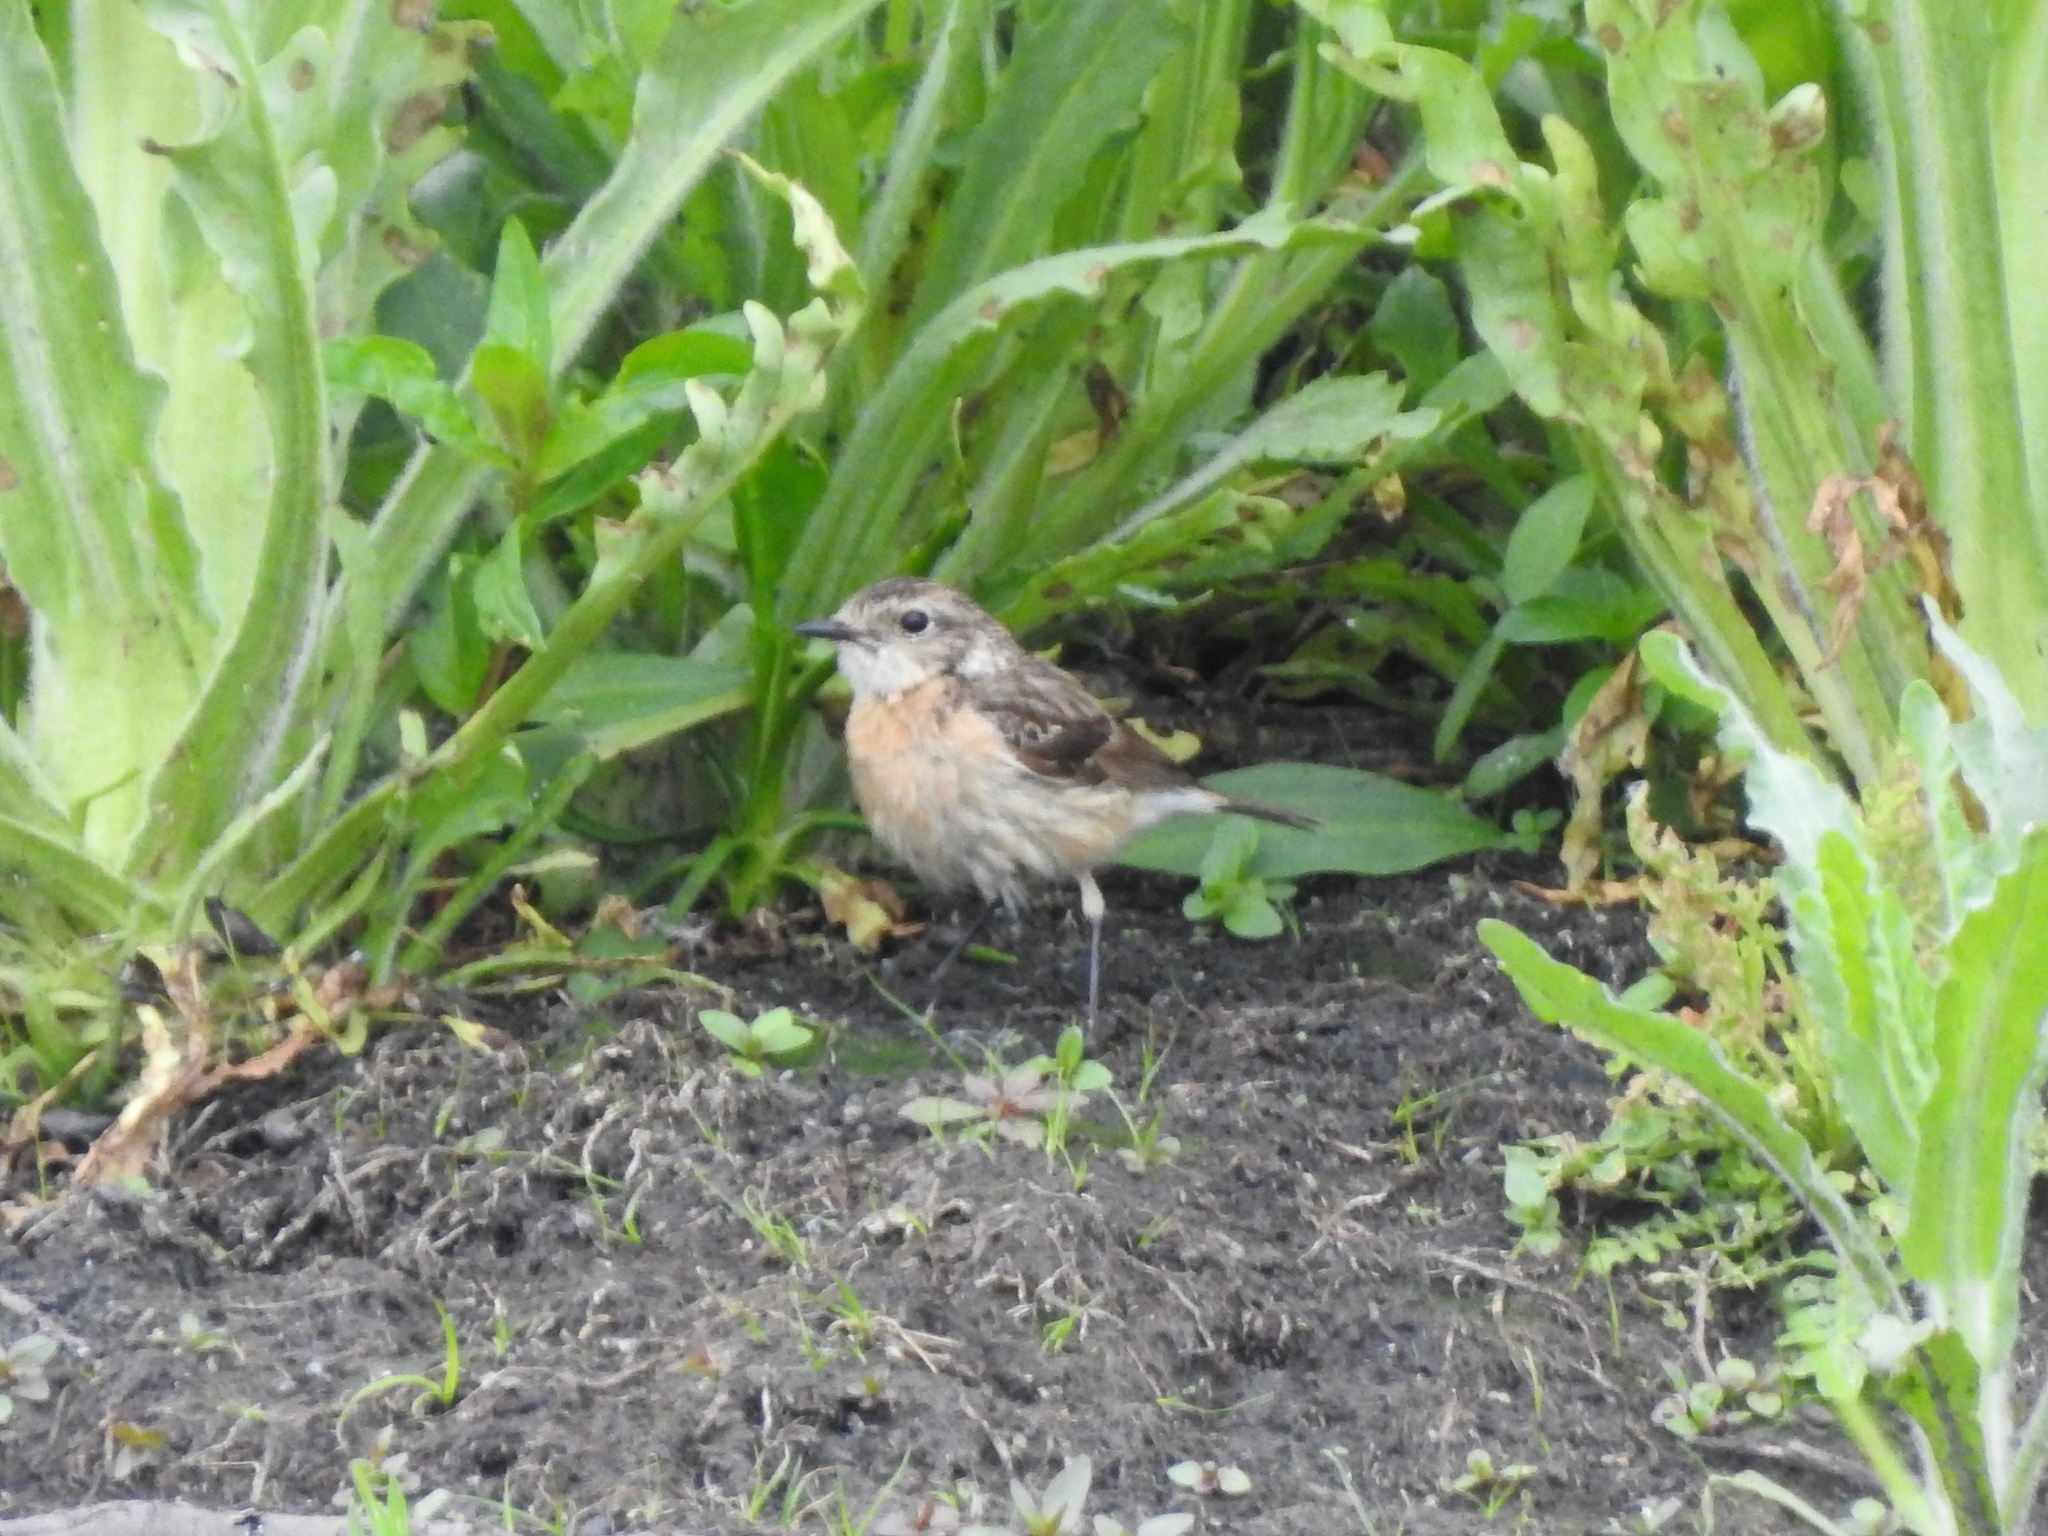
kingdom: Animalia
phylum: Chordata
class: Aves
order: Passeriformes
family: Muscicapidae
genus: Saxicola
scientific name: Saxicola maurus
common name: Siberian stonechat
